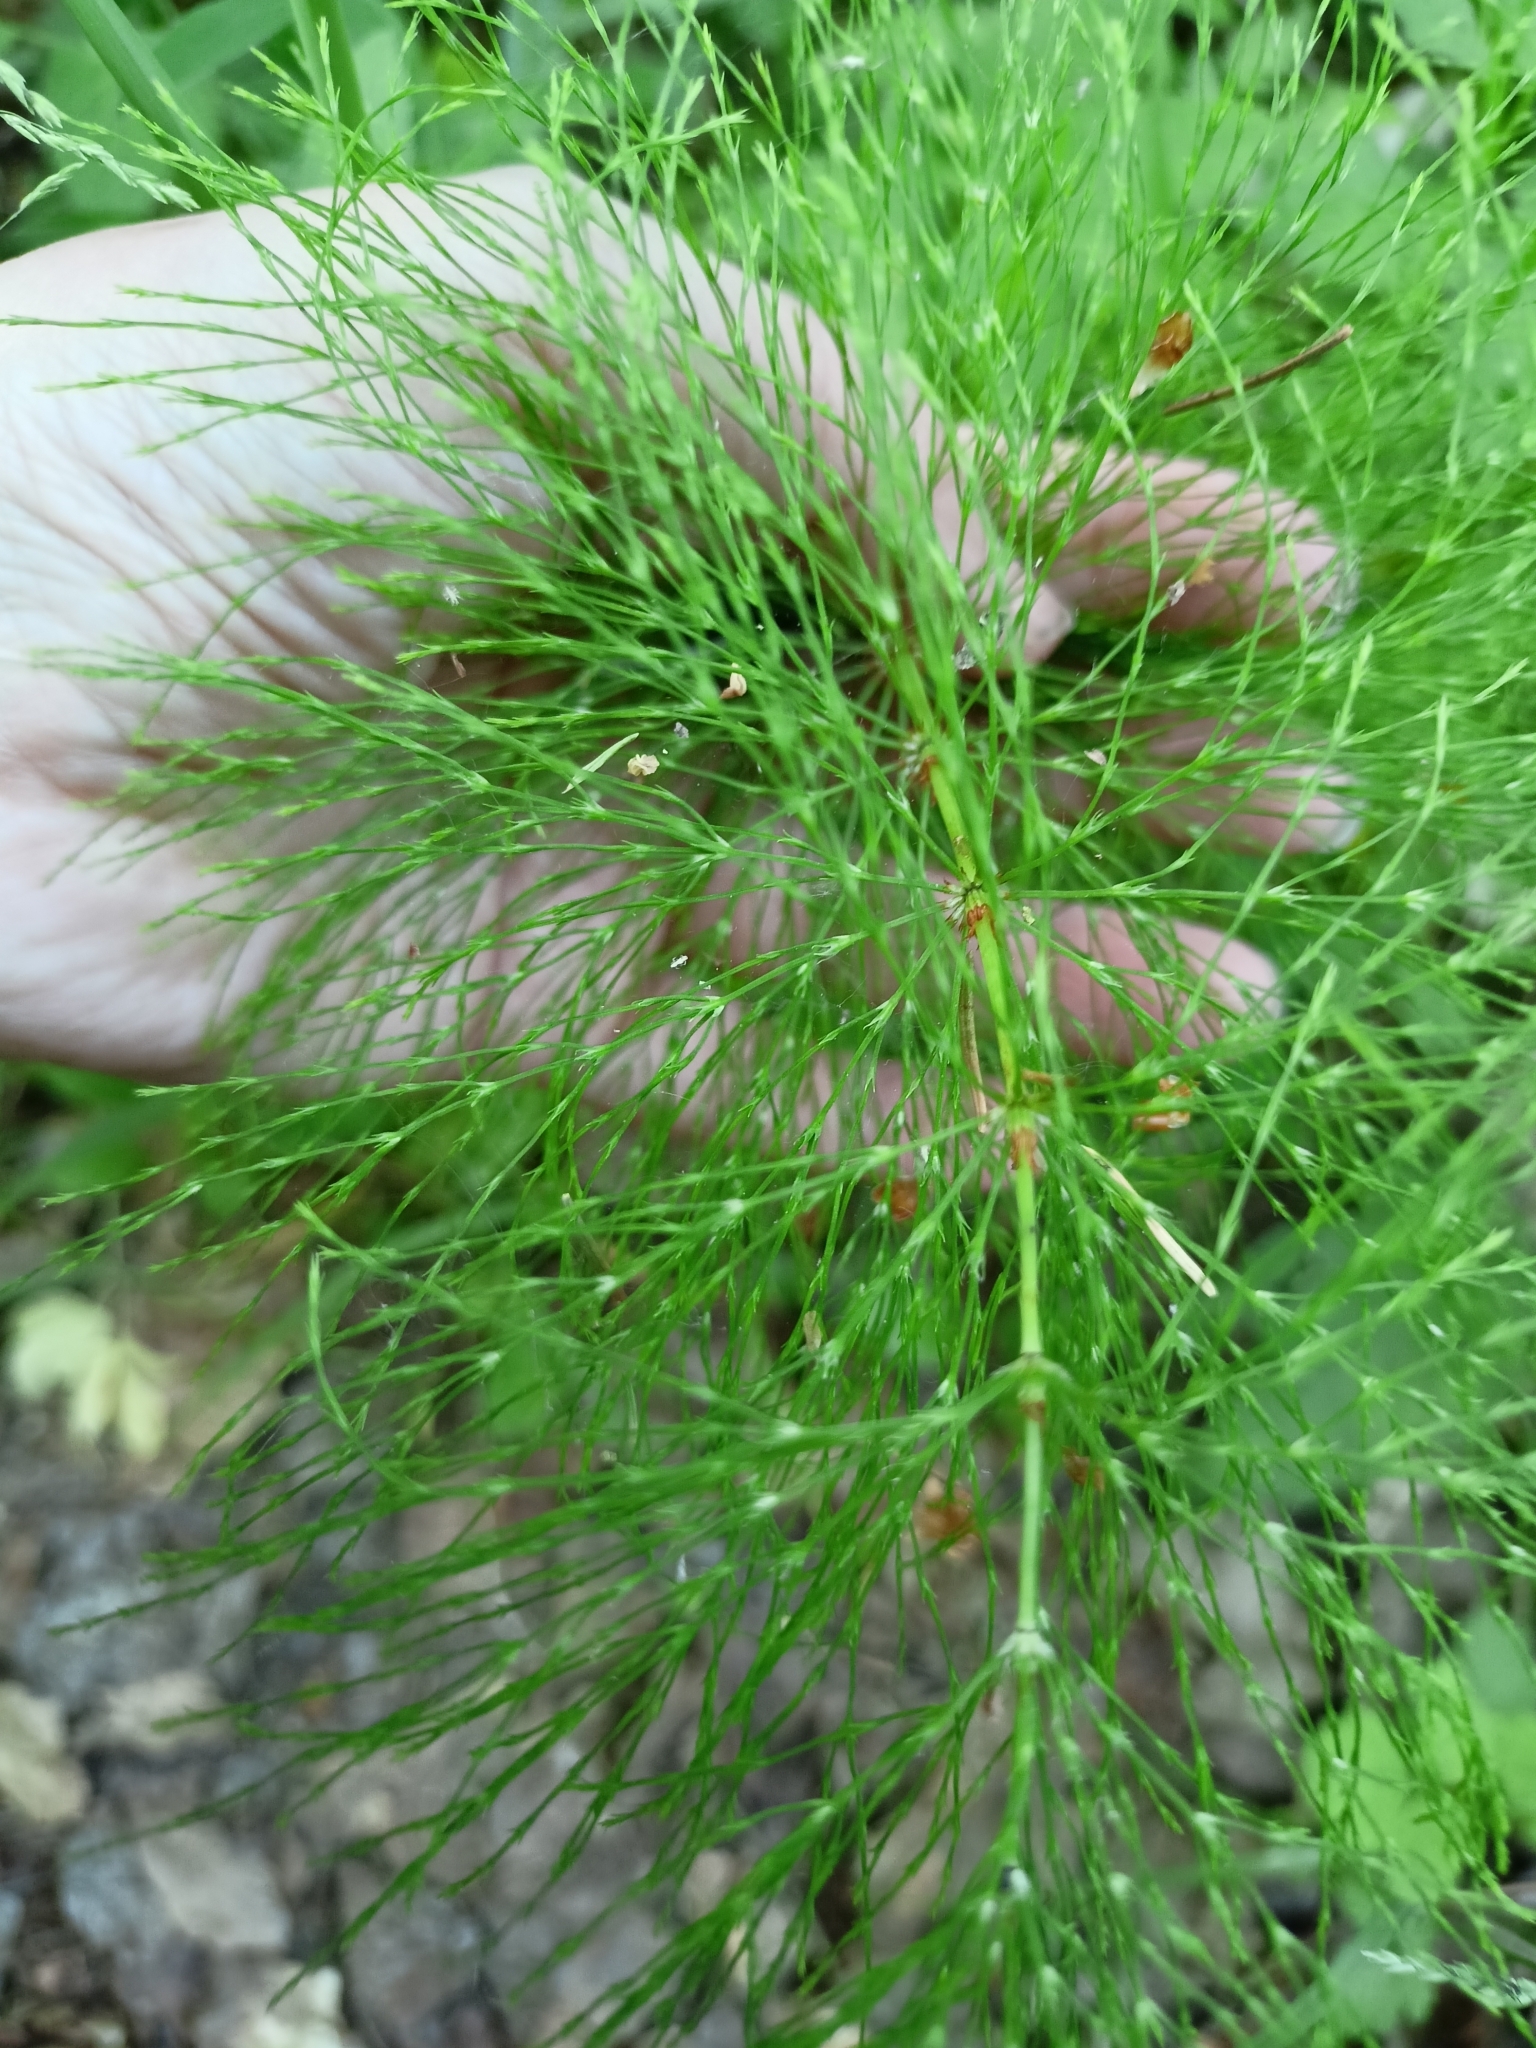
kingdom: Plantae
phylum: Tracheophyta
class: Polypodiopsida
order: Equisetales
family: Equisetaceae
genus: Equisetum
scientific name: Equisetum sylvaticum
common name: Wood horsetail
